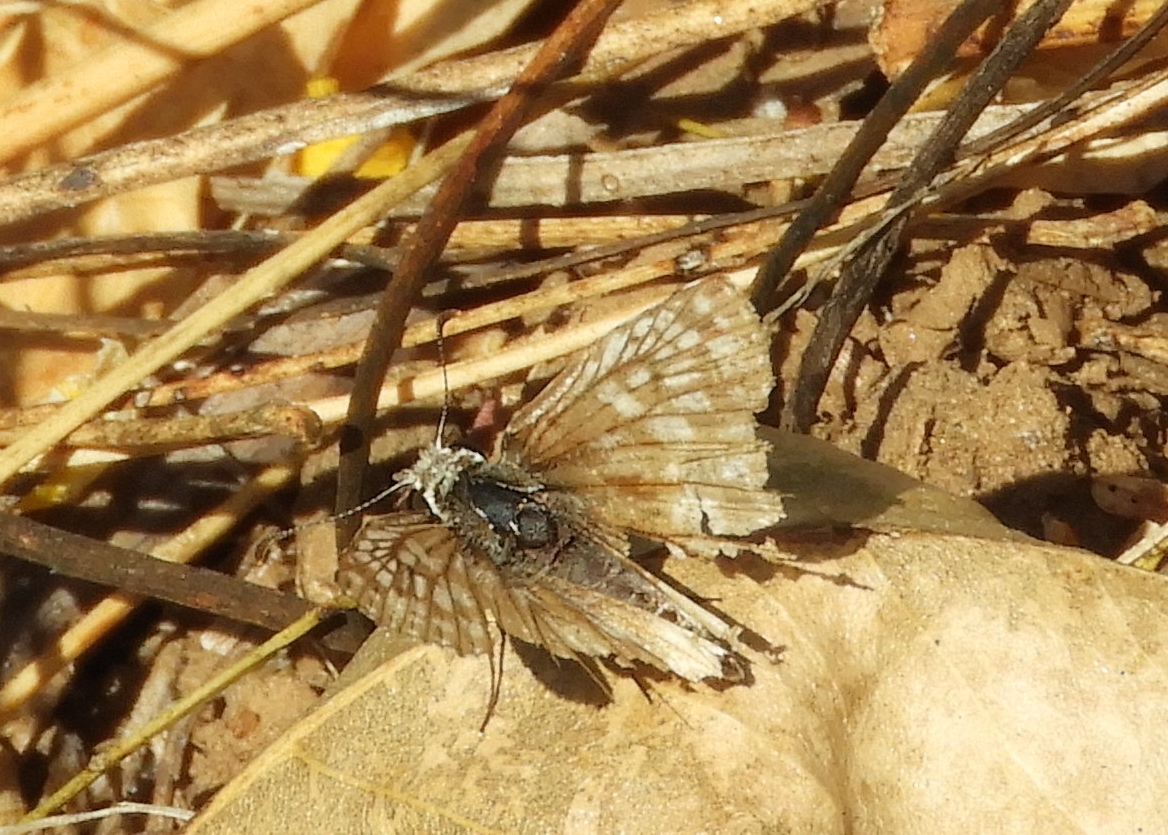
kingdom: Animalia
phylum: Arthropoda
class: Insecta
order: Lepidoptera
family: Hesperiidae
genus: Burnsius
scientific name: Burnsius
